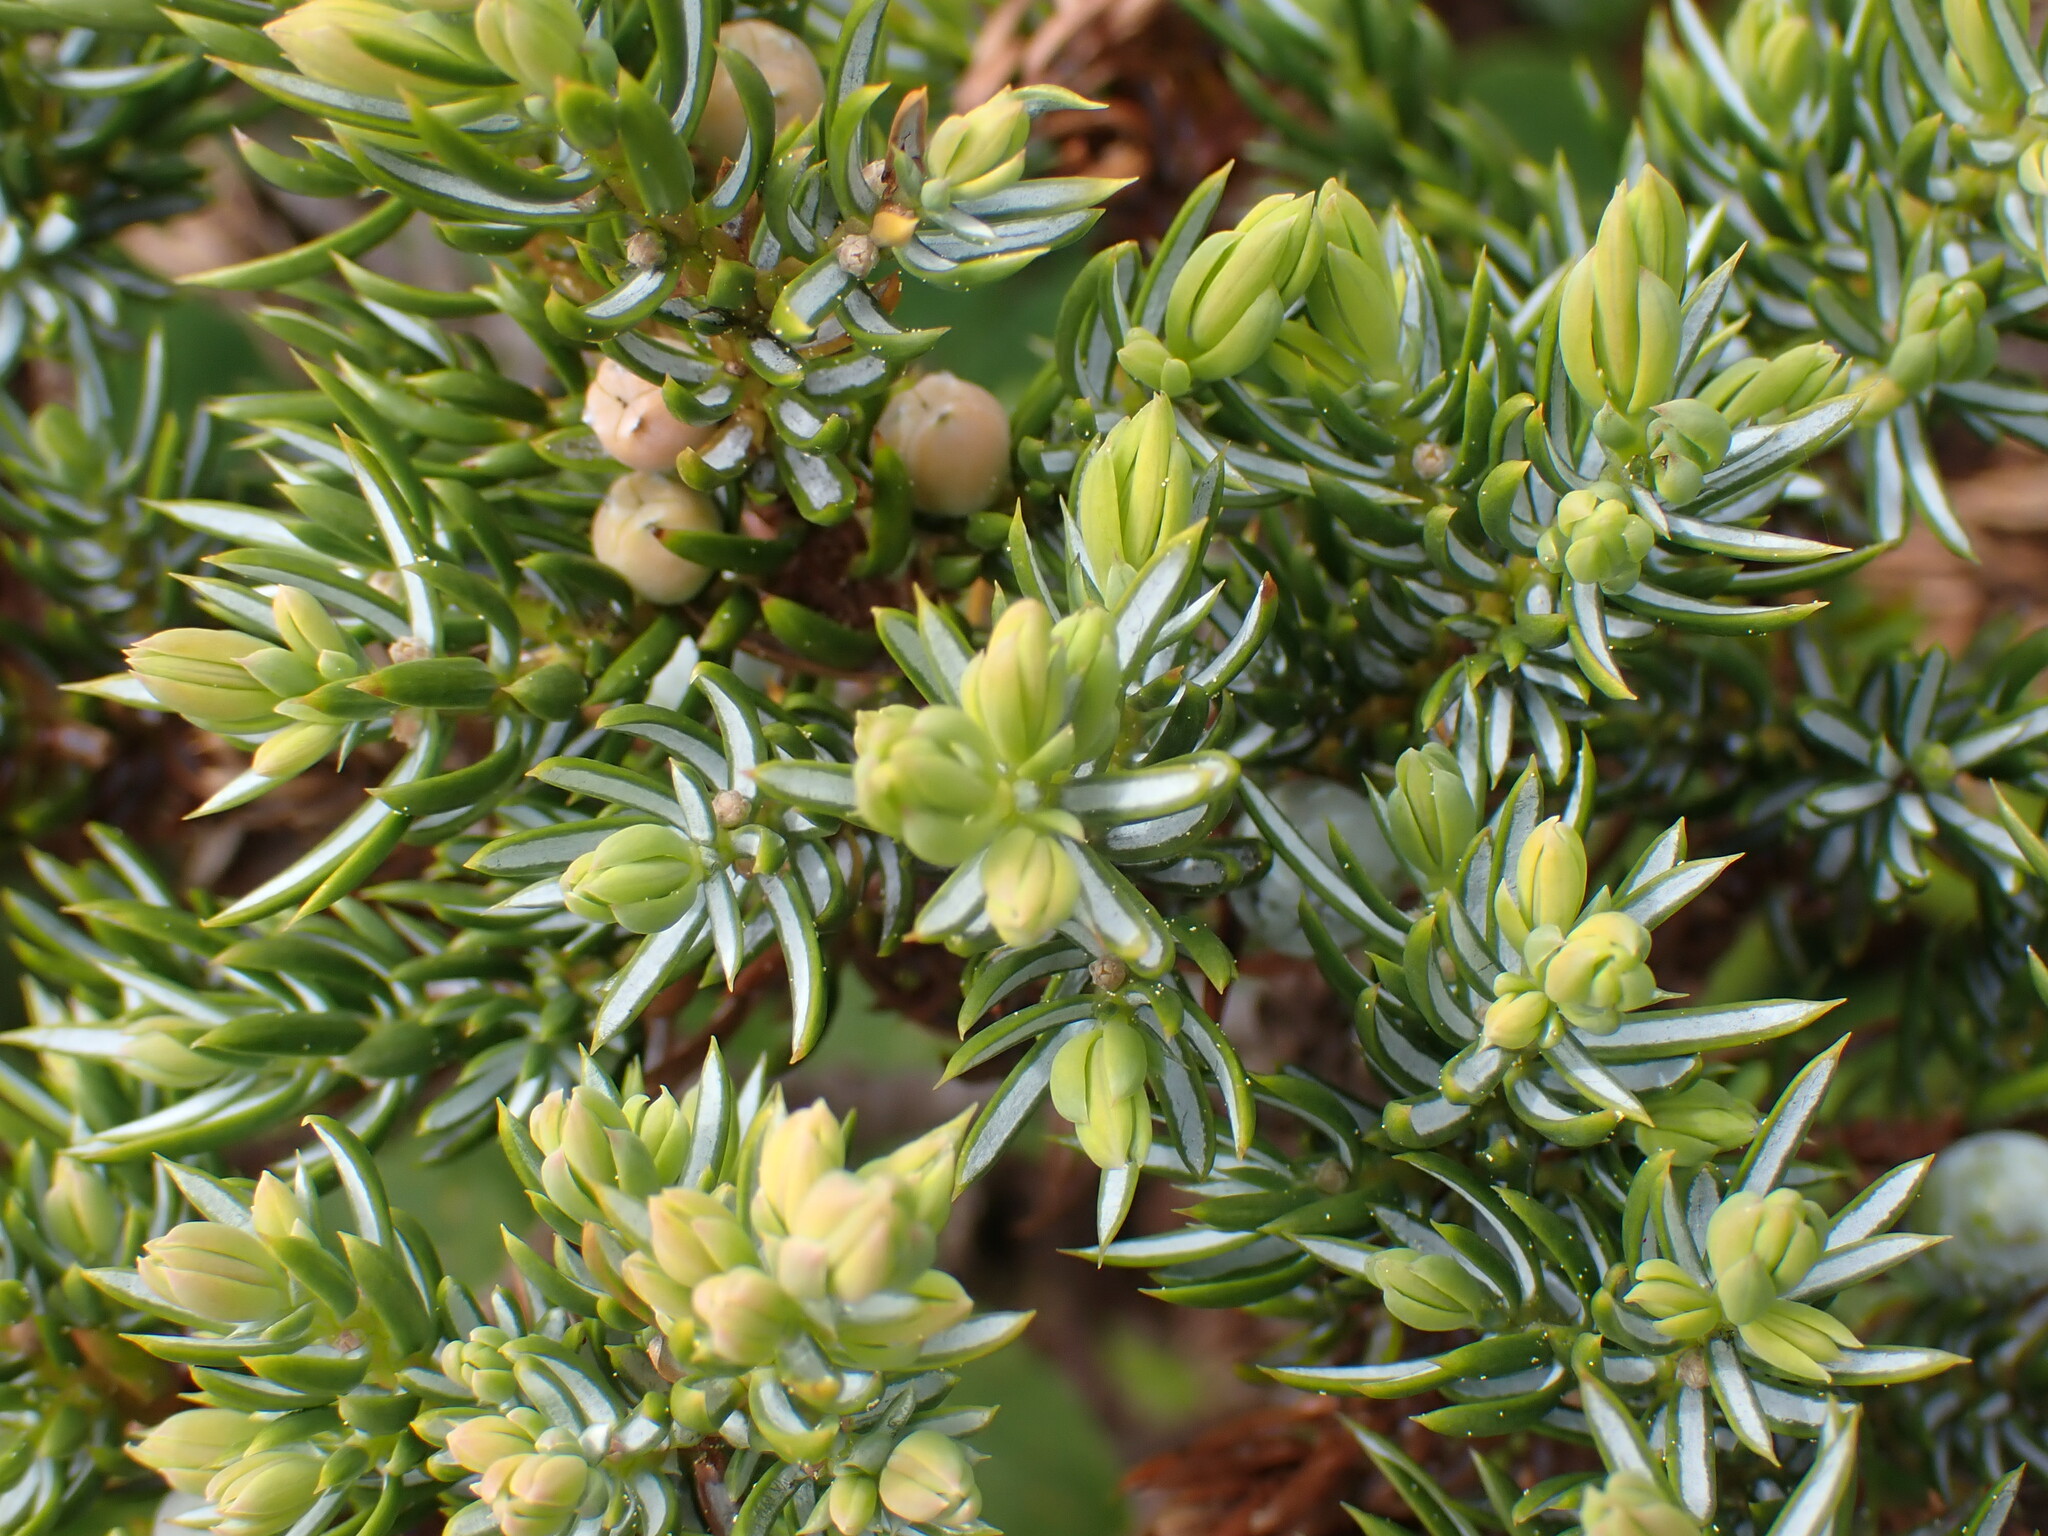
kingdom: Plantae
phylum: Tracheophyta
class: Pinopsida
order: Pinales
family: Cupressaceae
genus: Juniperus
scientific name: Juniperus communis
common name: Common juniper
